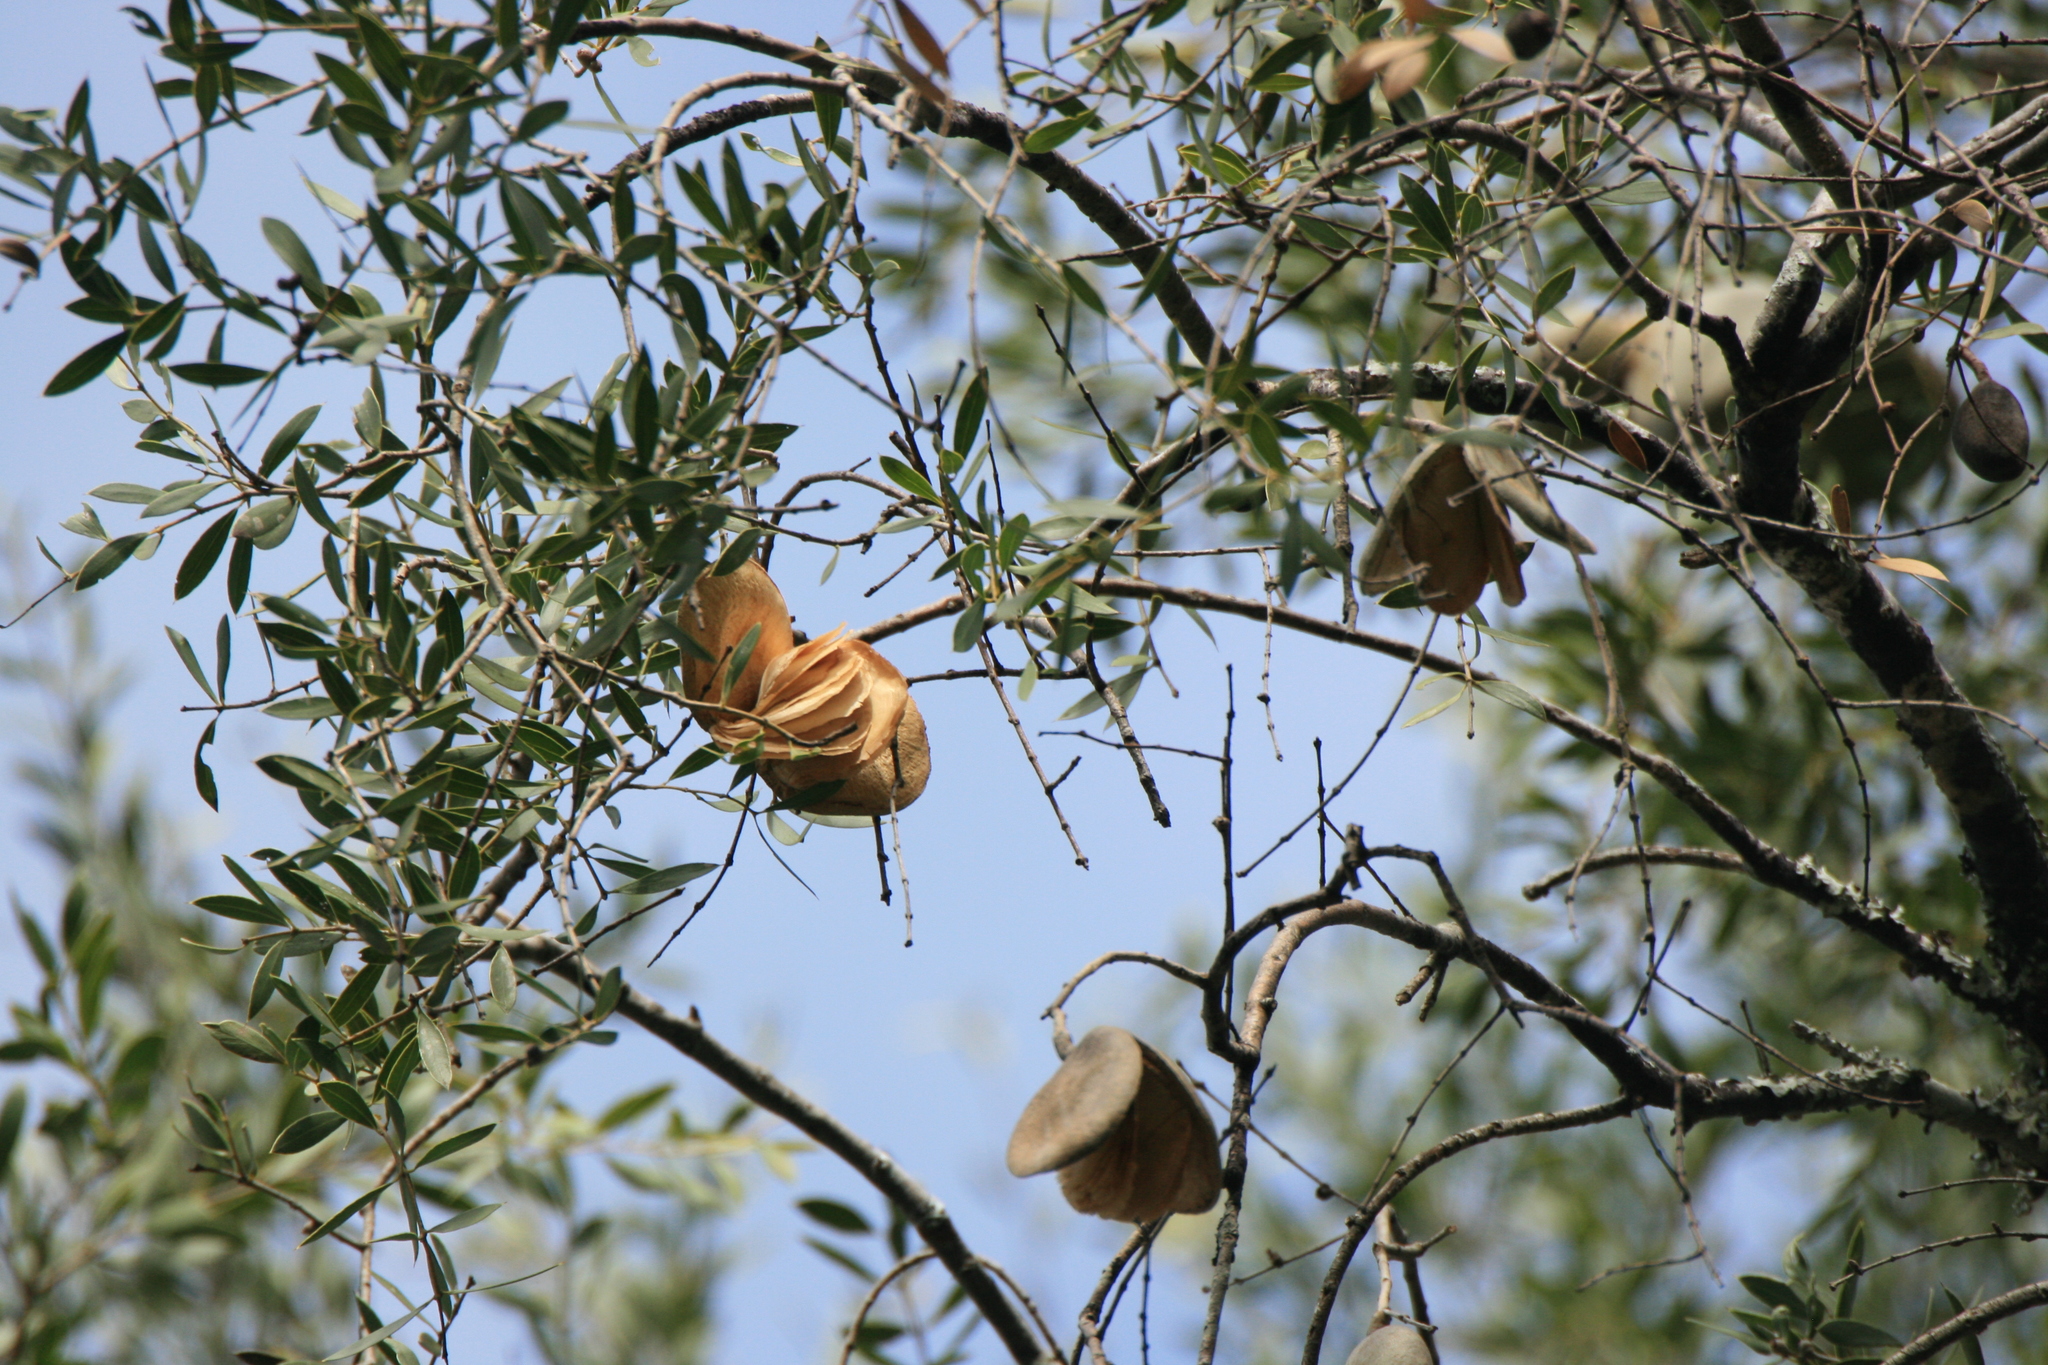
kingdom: Plantae
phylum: Tracheophyta
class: Magnoliopsida
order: Gentianales
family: Apocynaceae
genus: Aspidosperma
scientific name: Aspidosperma quebracho-blanco
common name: White quebracho
